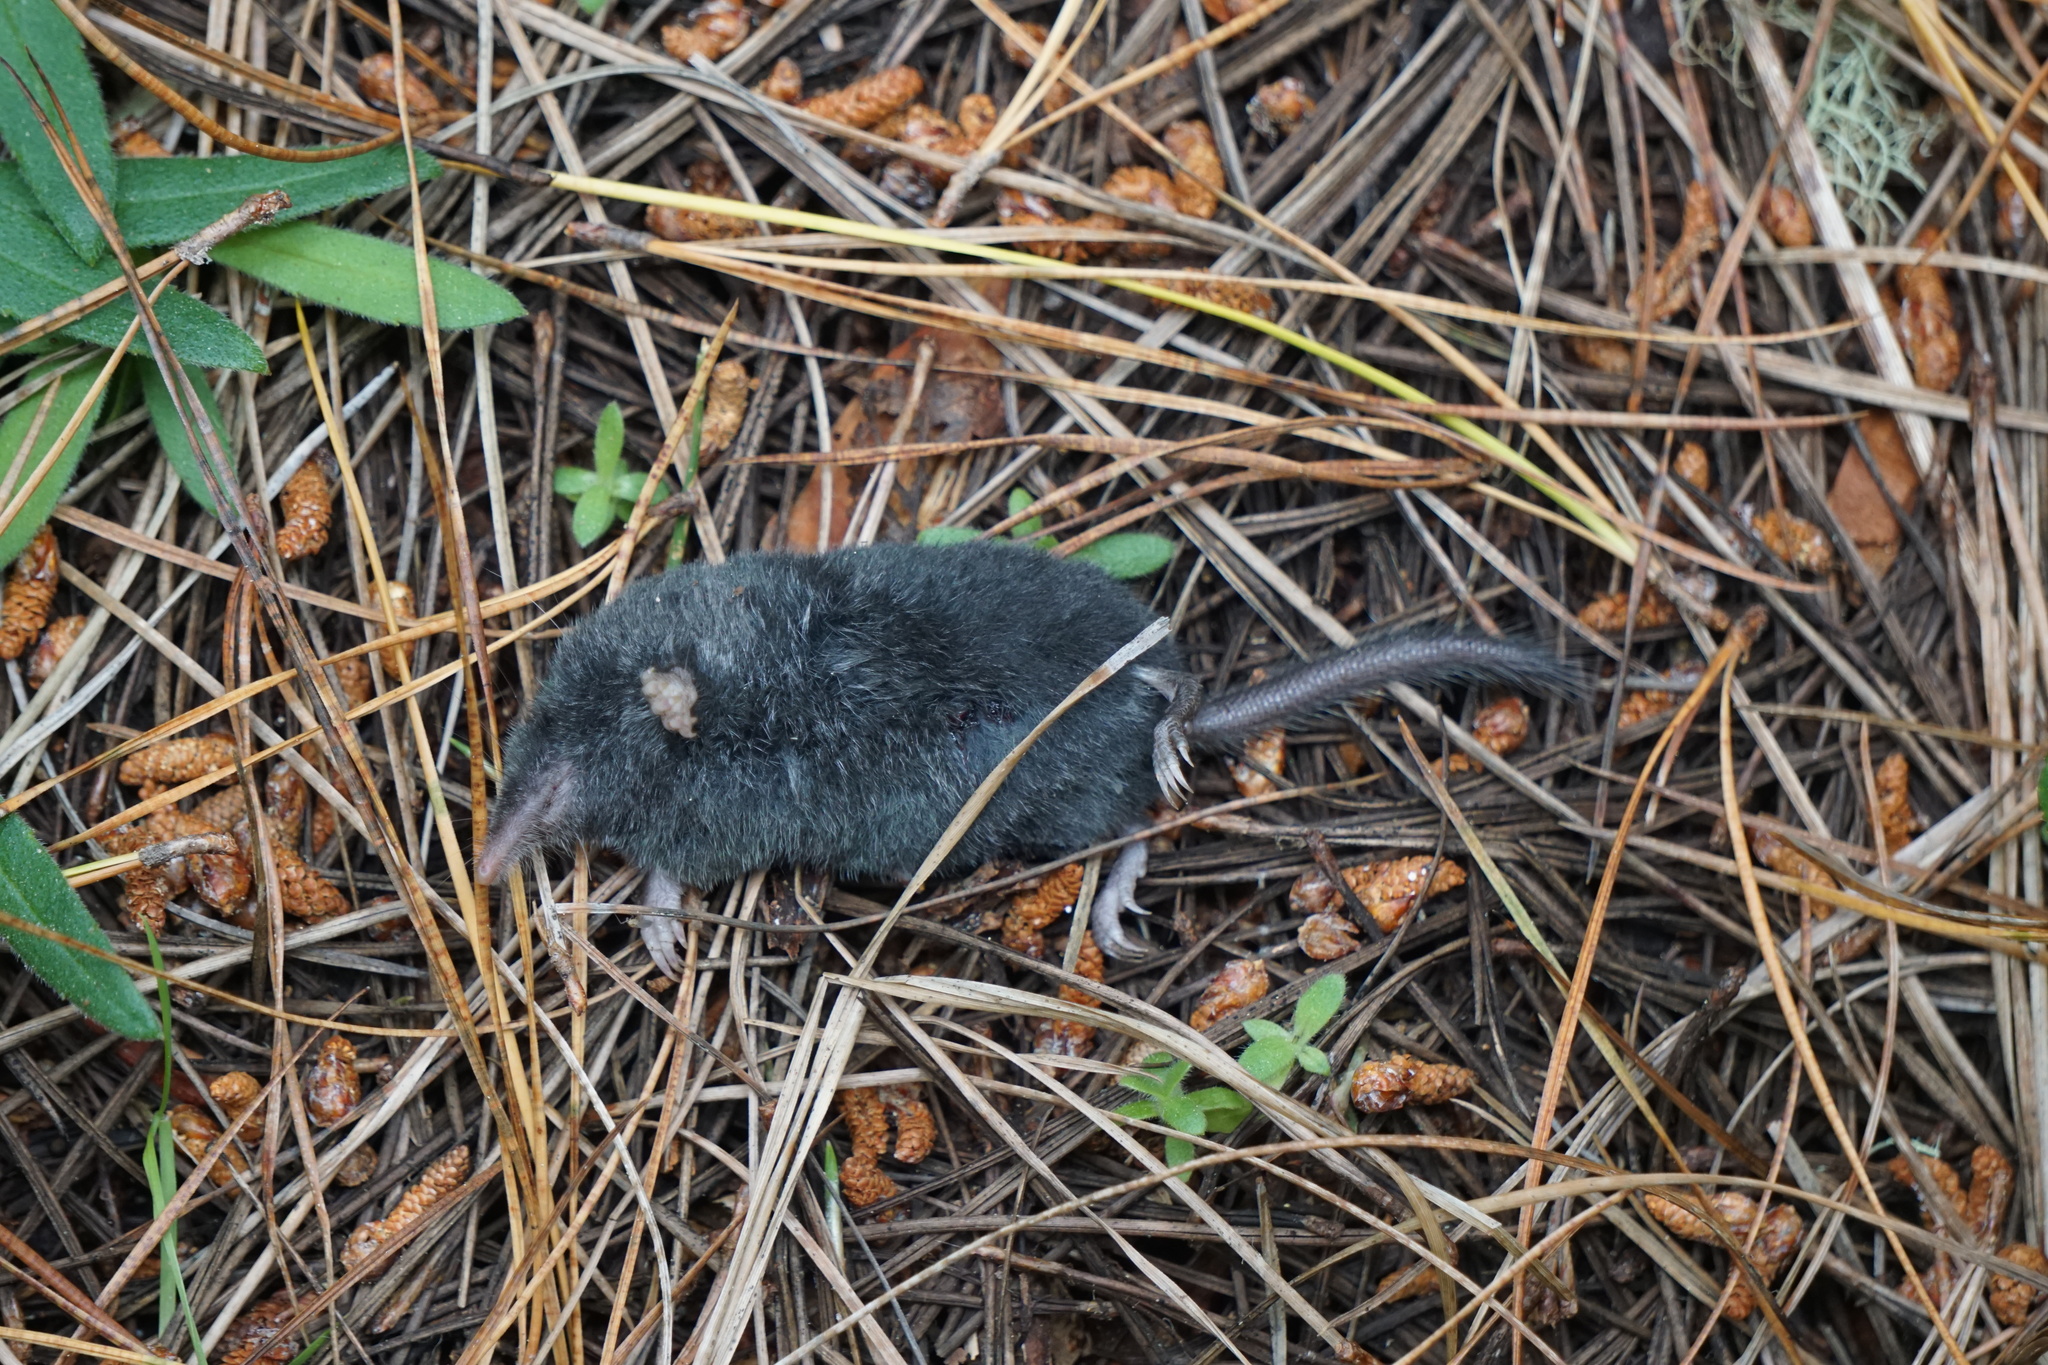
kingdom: Animalia
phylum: Chordata
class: Mammalia
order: Soricomorpha
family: Talpidae
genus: Neurotrichus
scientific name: Neurotrichus gibbsii
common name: American shrew mole
